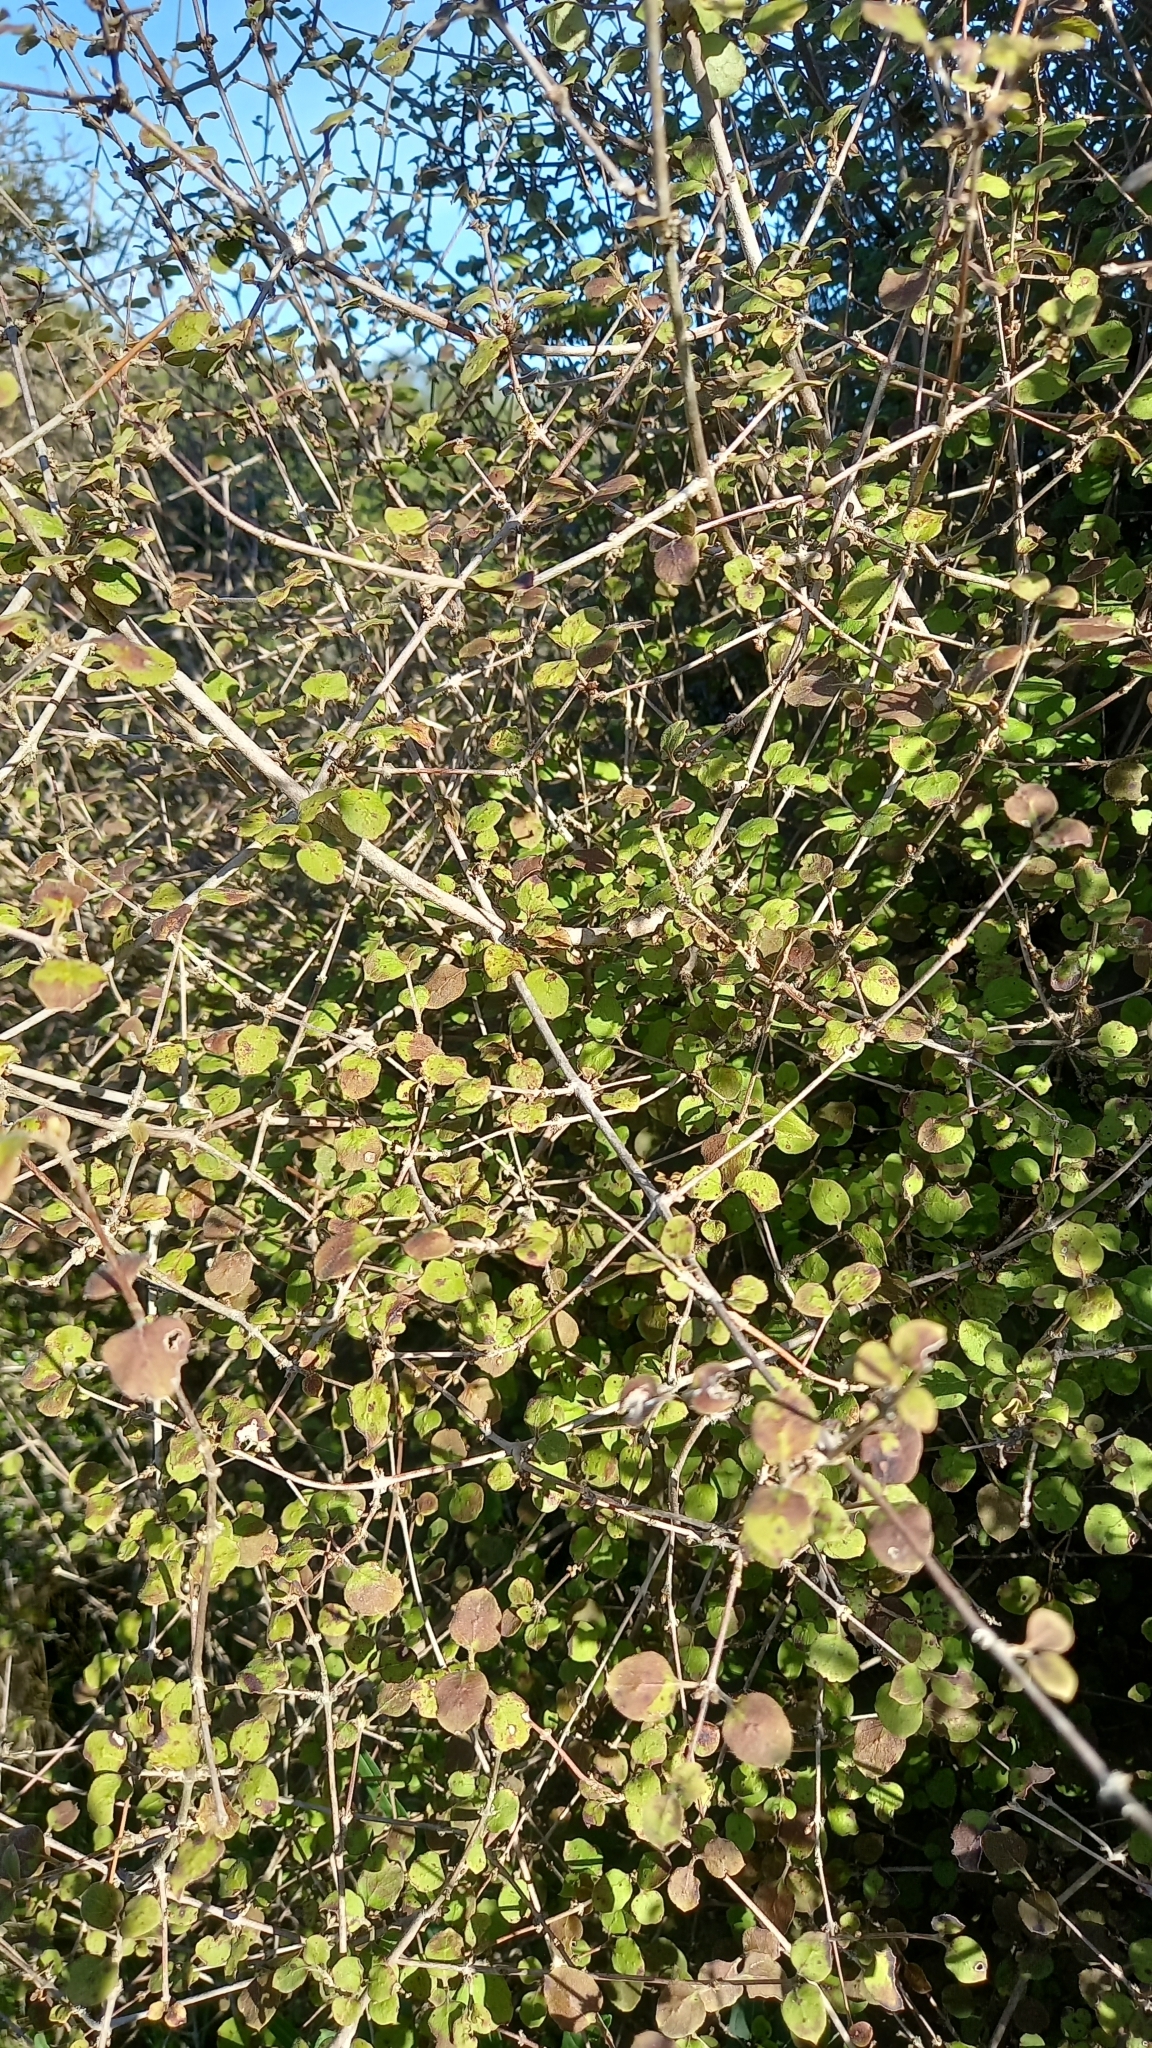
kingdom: Plantae
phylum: Tracheophyta
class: Magnoliopsida
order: Gentianales
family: Rubiaceae
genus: Coprosma
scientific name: Coprosma rotundifolia
